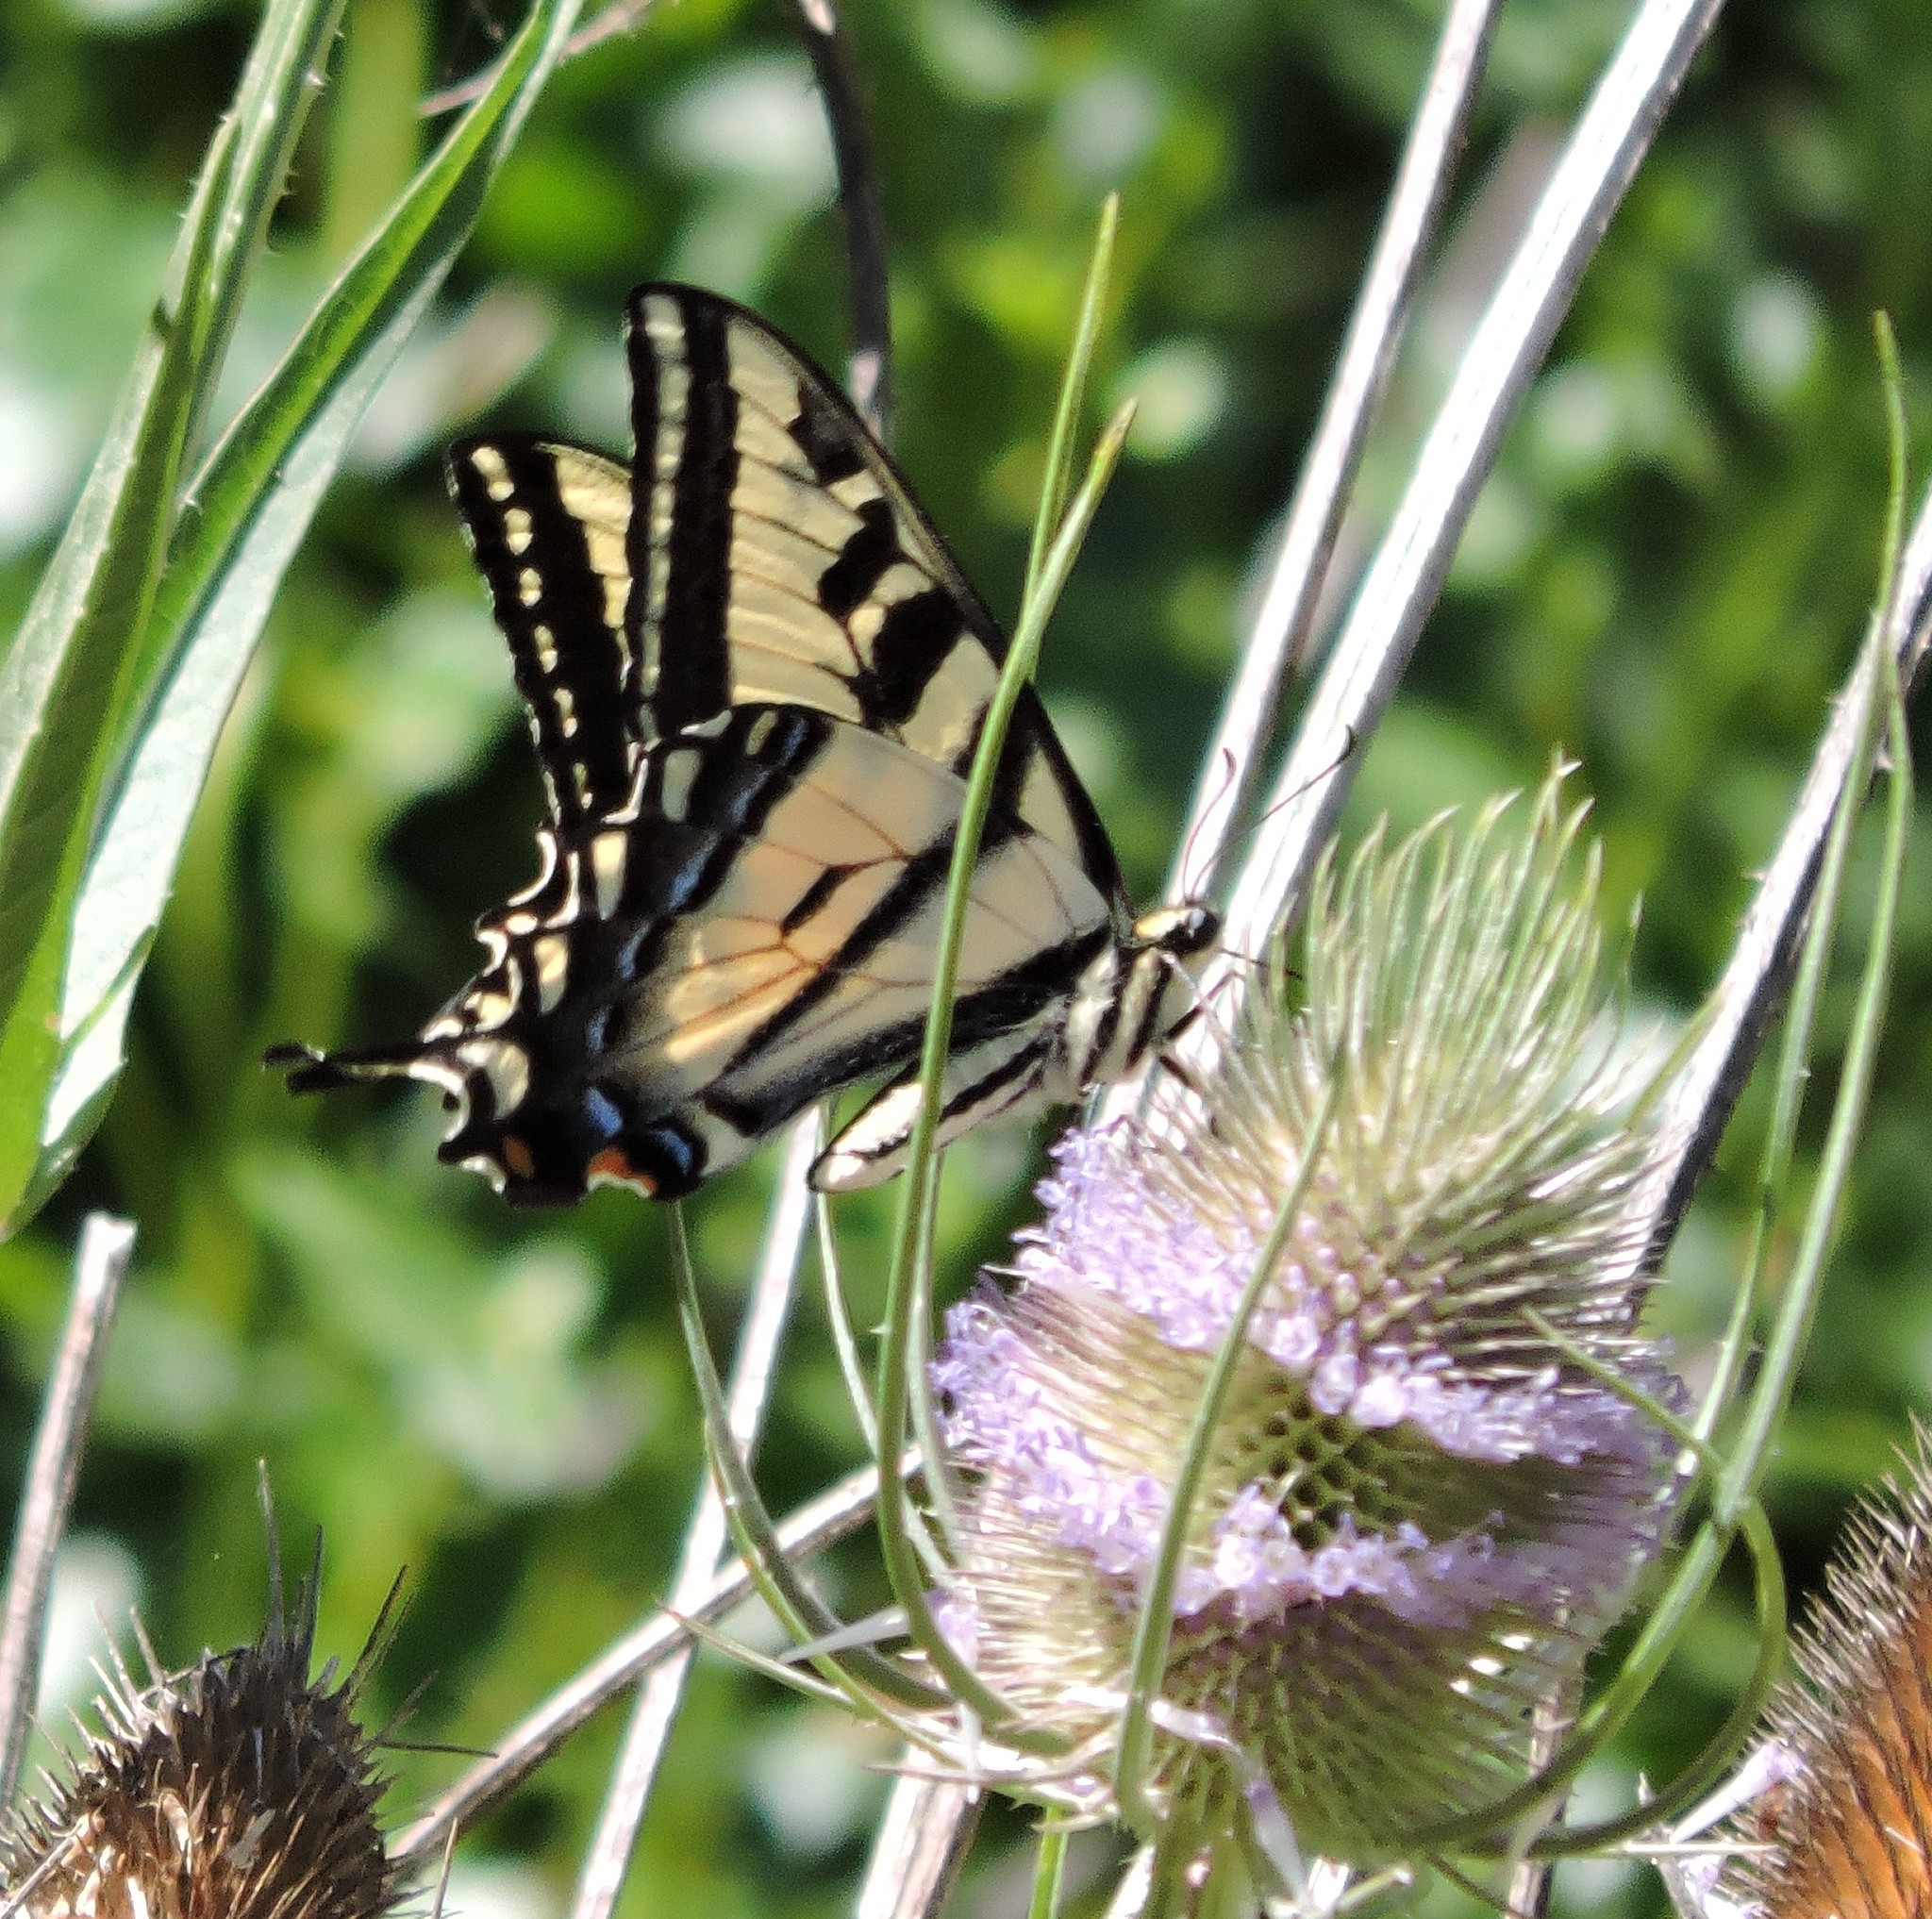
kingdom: Animalia
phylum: Arthropoda
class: Insecta
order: Lepidoptera
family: Papilionidae
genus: Papilio
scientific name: Papilio rutulus
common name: Western tiger swallowtail
